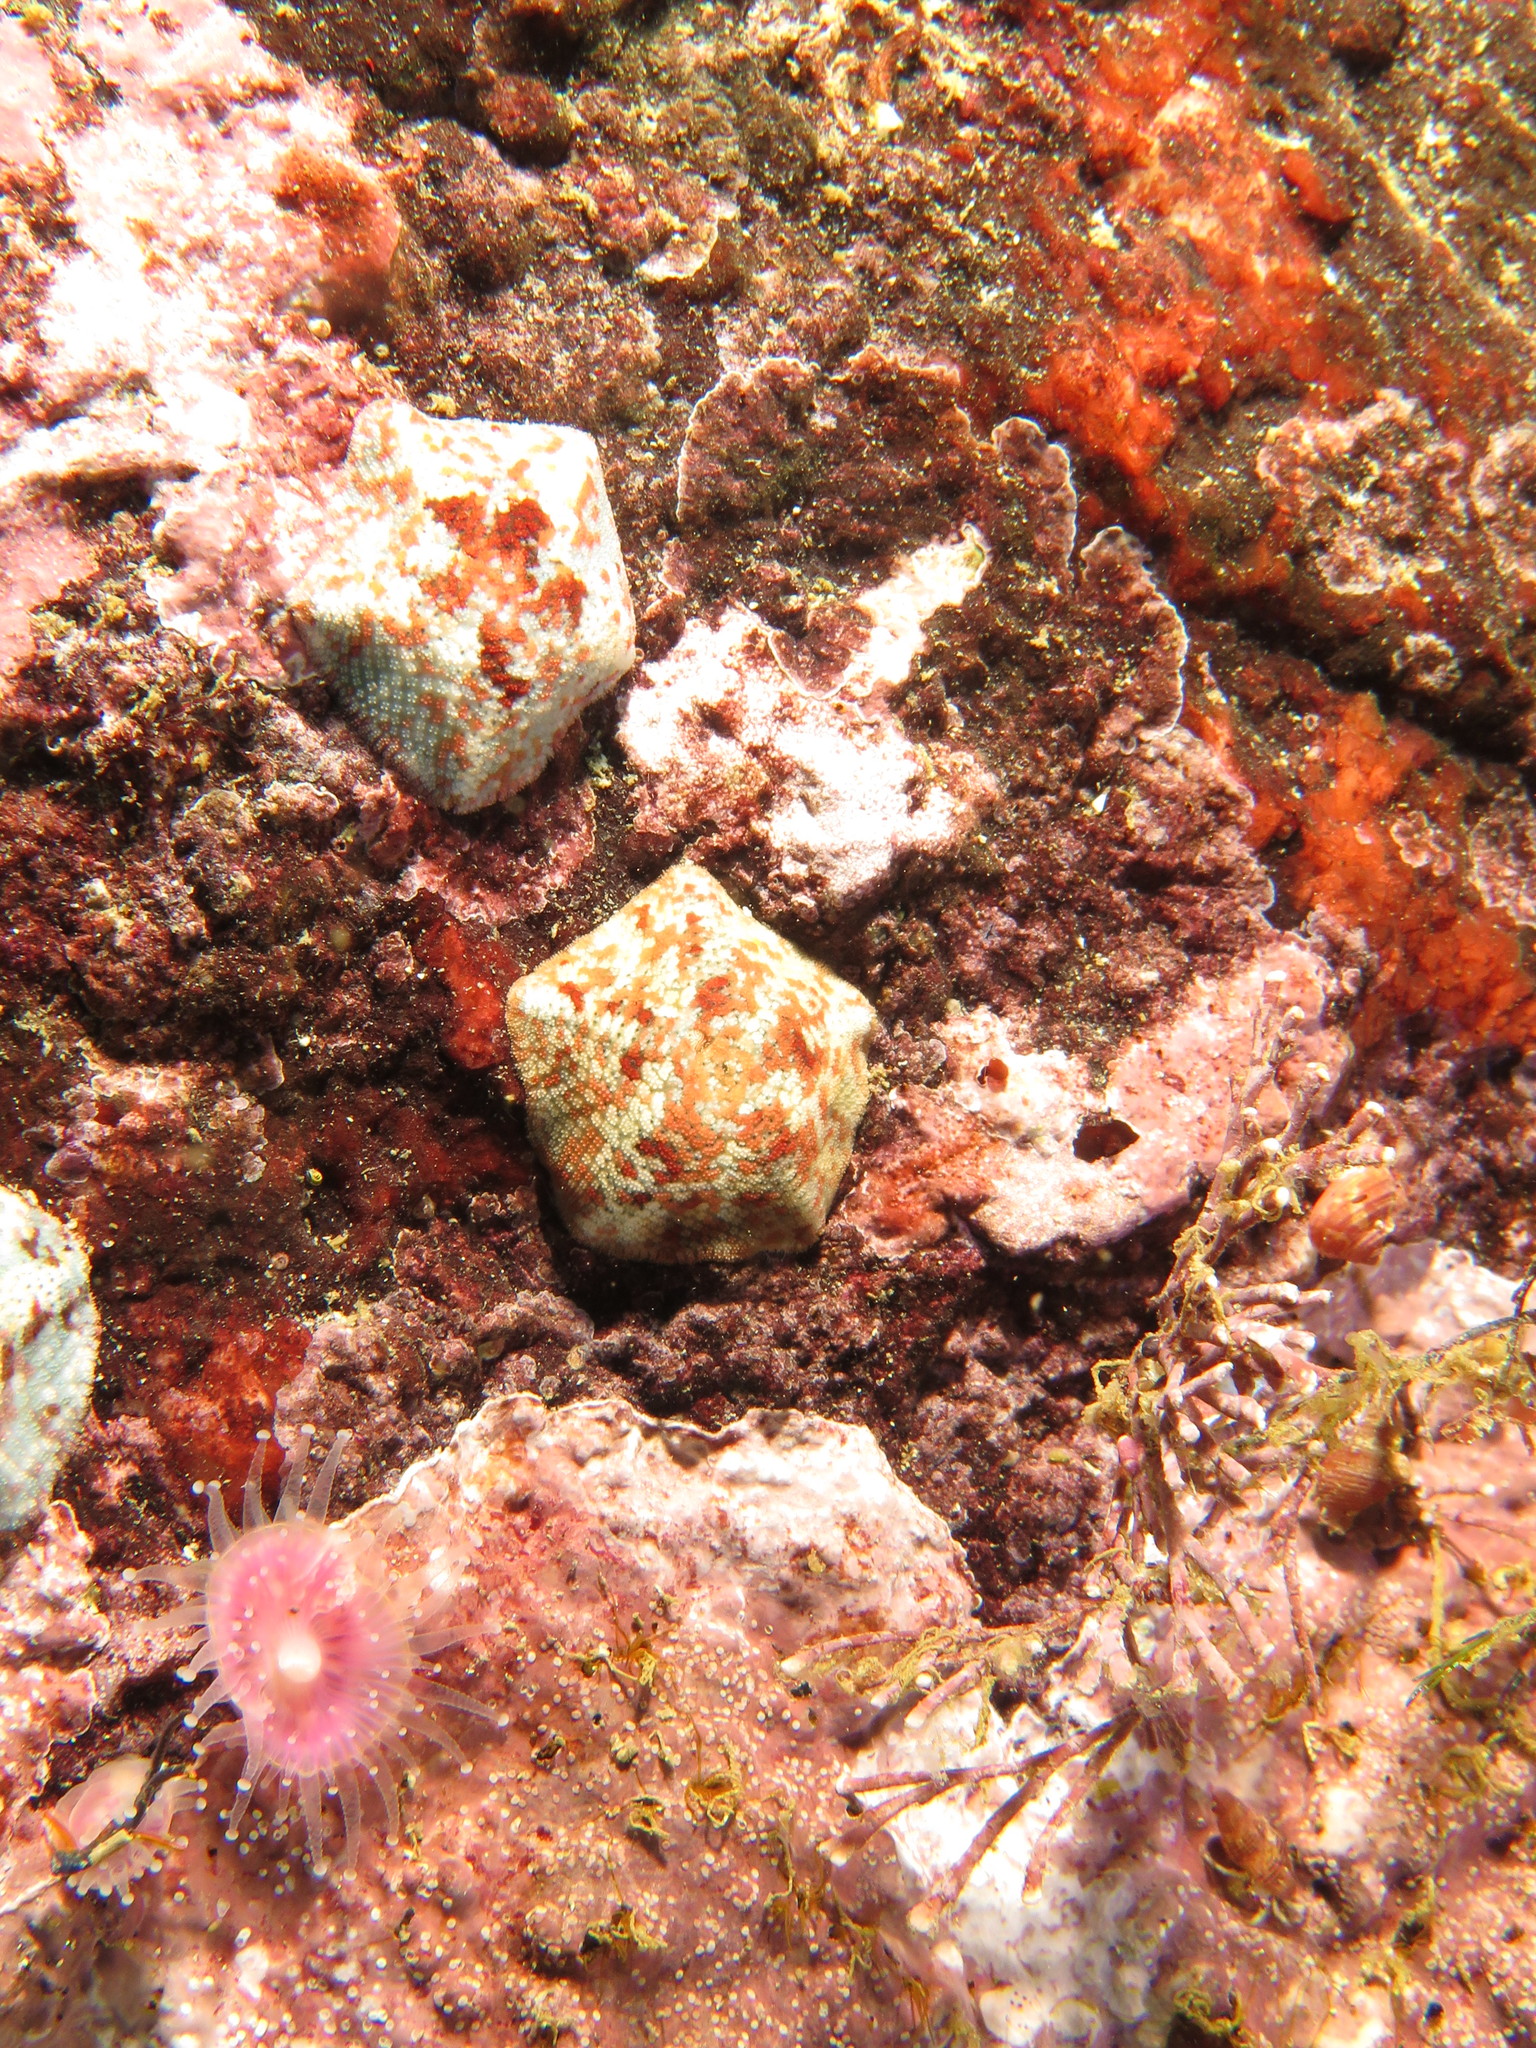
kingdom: Animalia
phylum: Echinodermata
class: Asteroidea
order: Valvatida
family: Asterinidae
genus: Parvulastra
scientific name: Parvulastra dyscrita
